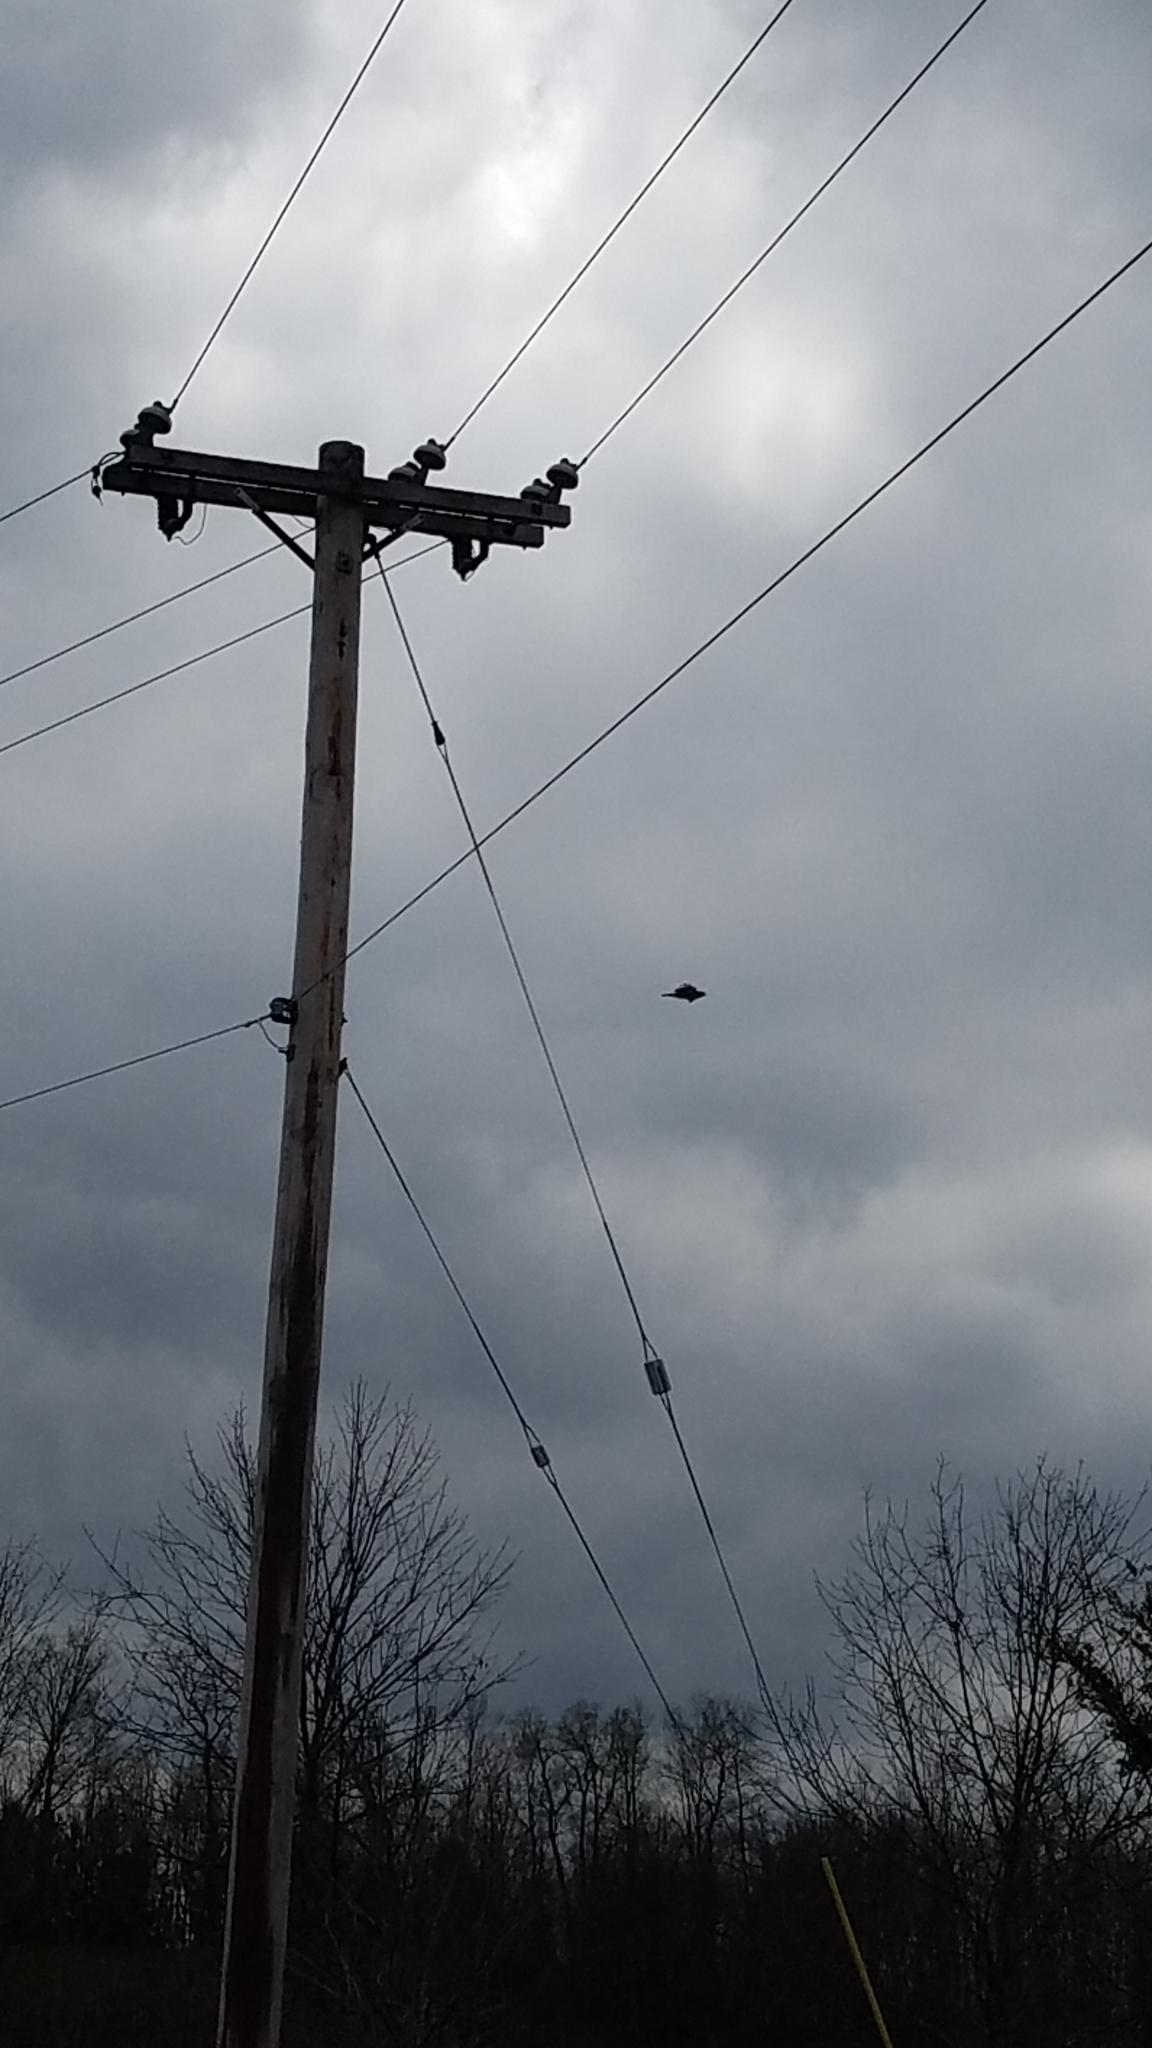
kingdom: Animalia
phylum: Chordata
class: Aves
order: Accipitriformes
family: Accipitridae
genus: Buteo
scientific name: Buteo jamaicensis
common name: Red-tailed hawk
